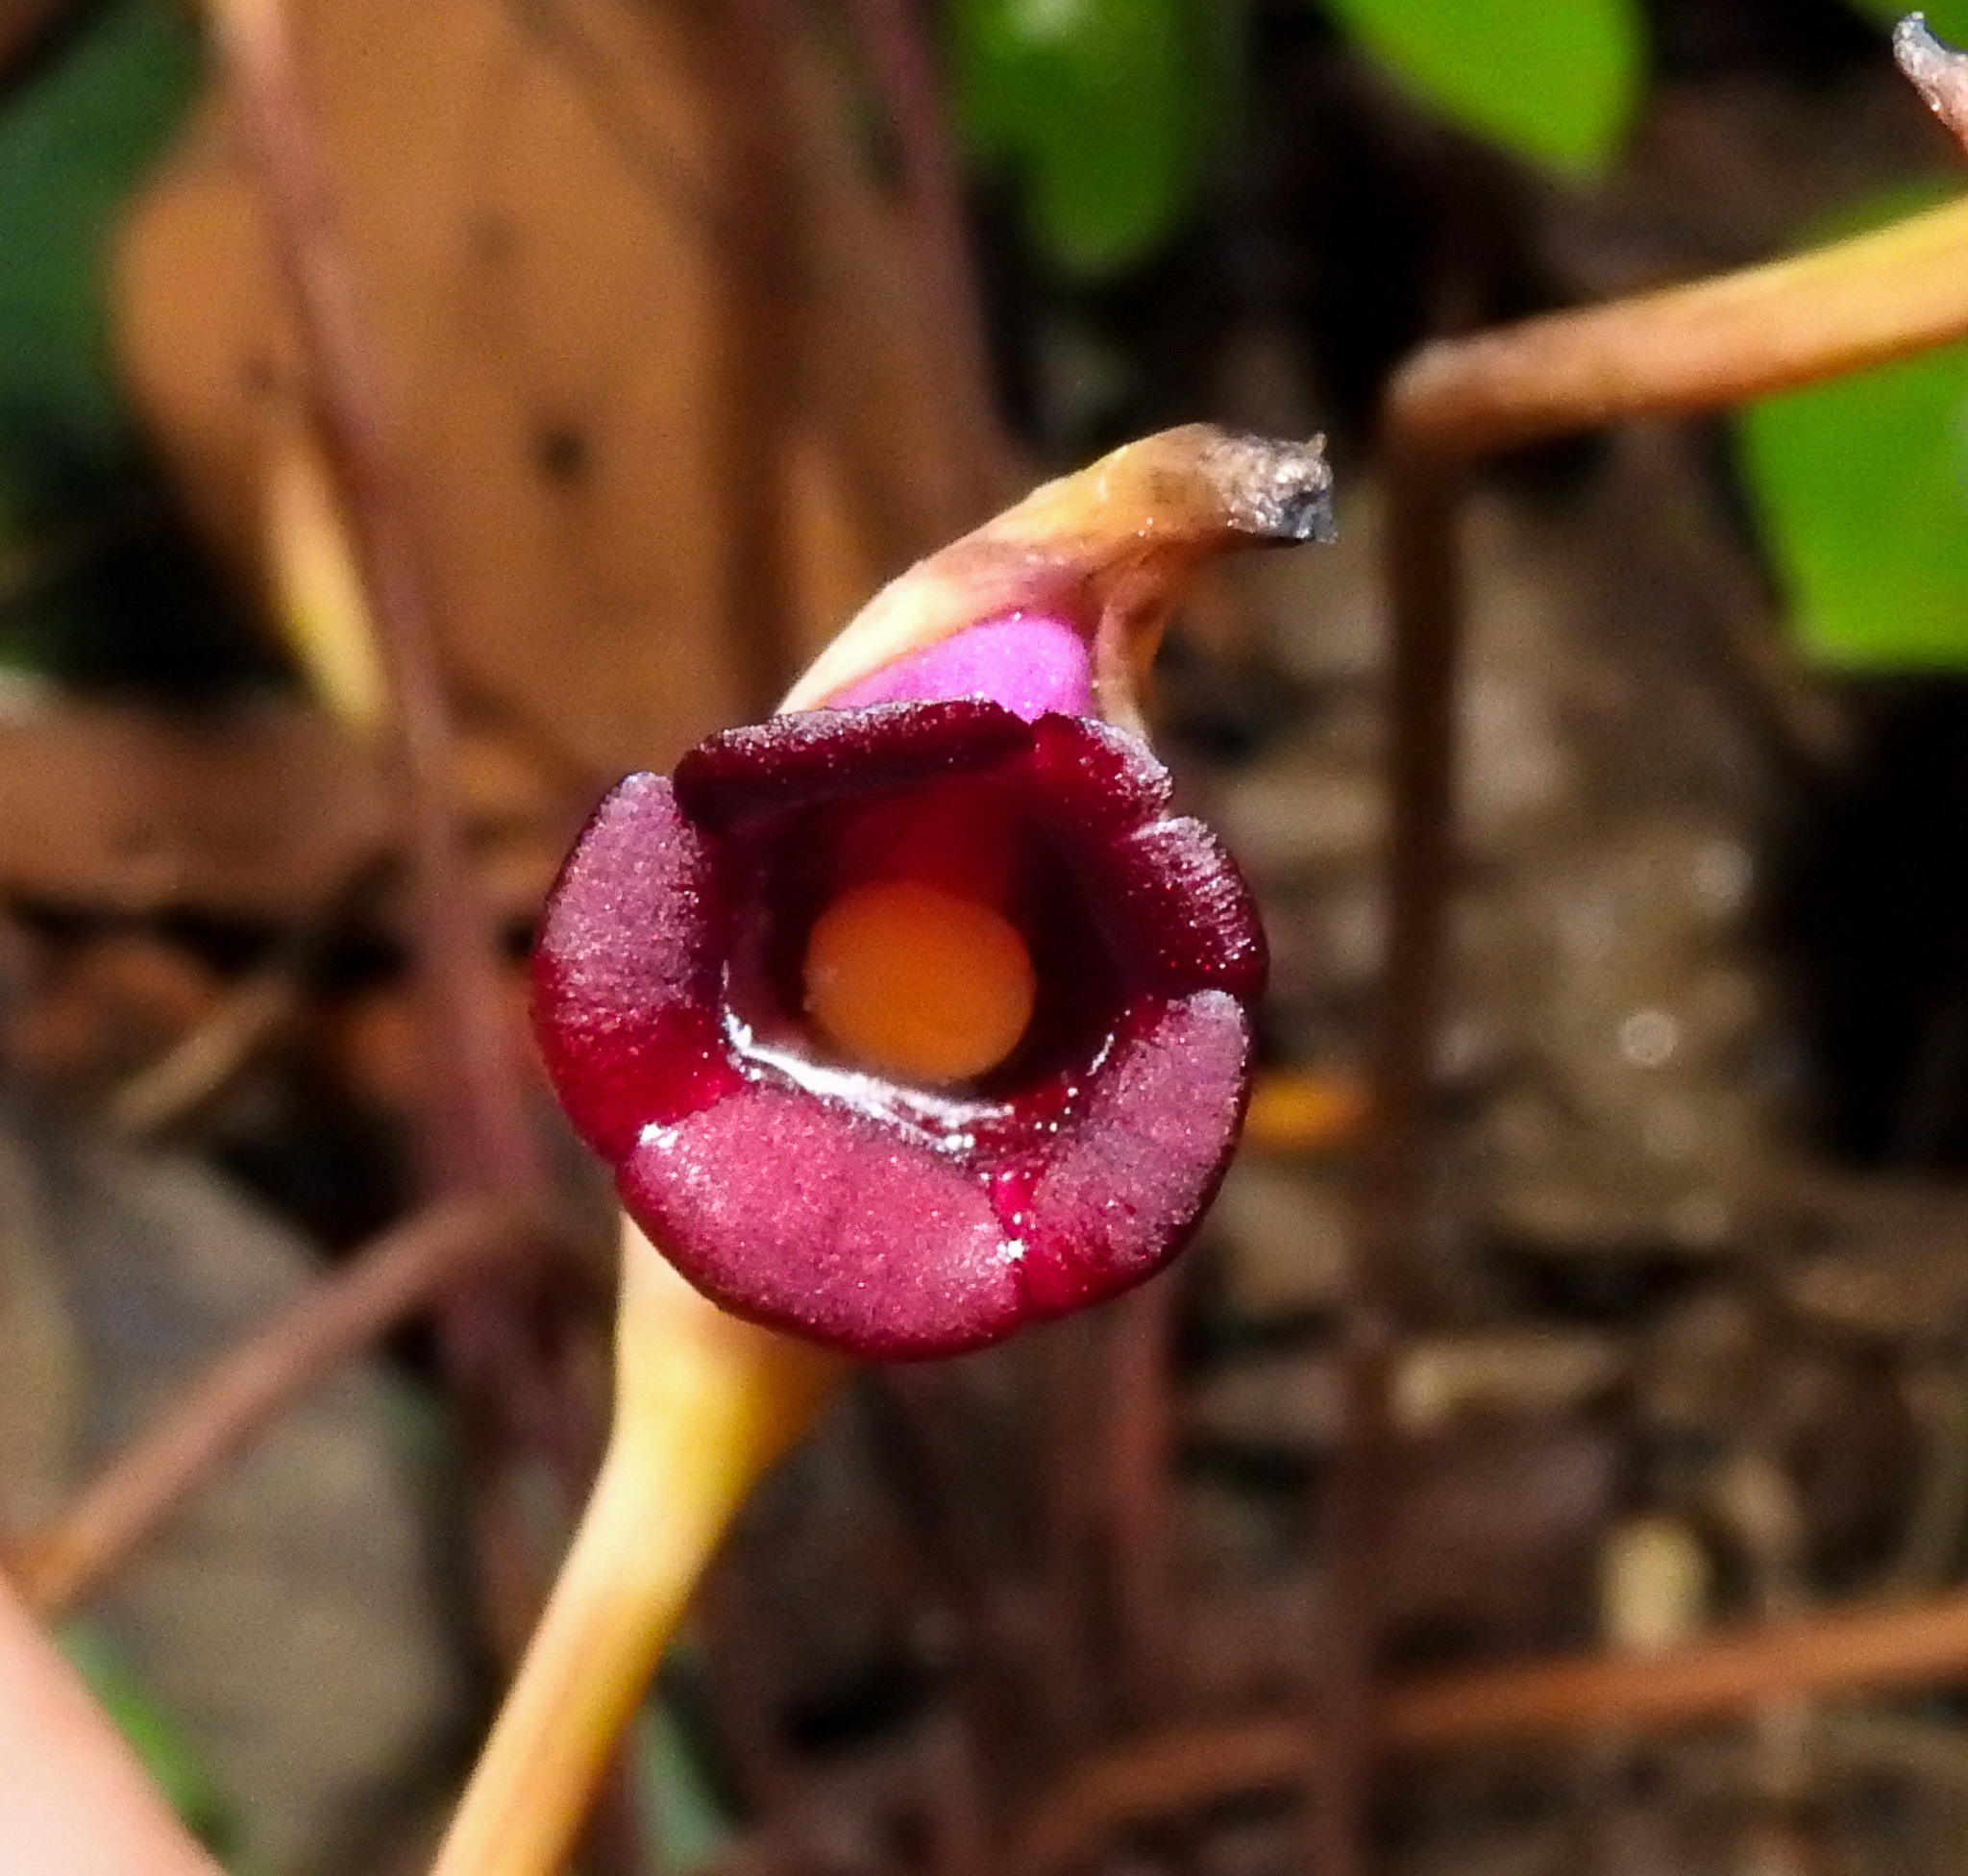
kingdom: Plantae
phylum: Tracheophyta
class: Magnoliopsida
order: Lamiales
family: Orobanchaceae
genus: Aeginetia
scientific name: Aeginetia indica
